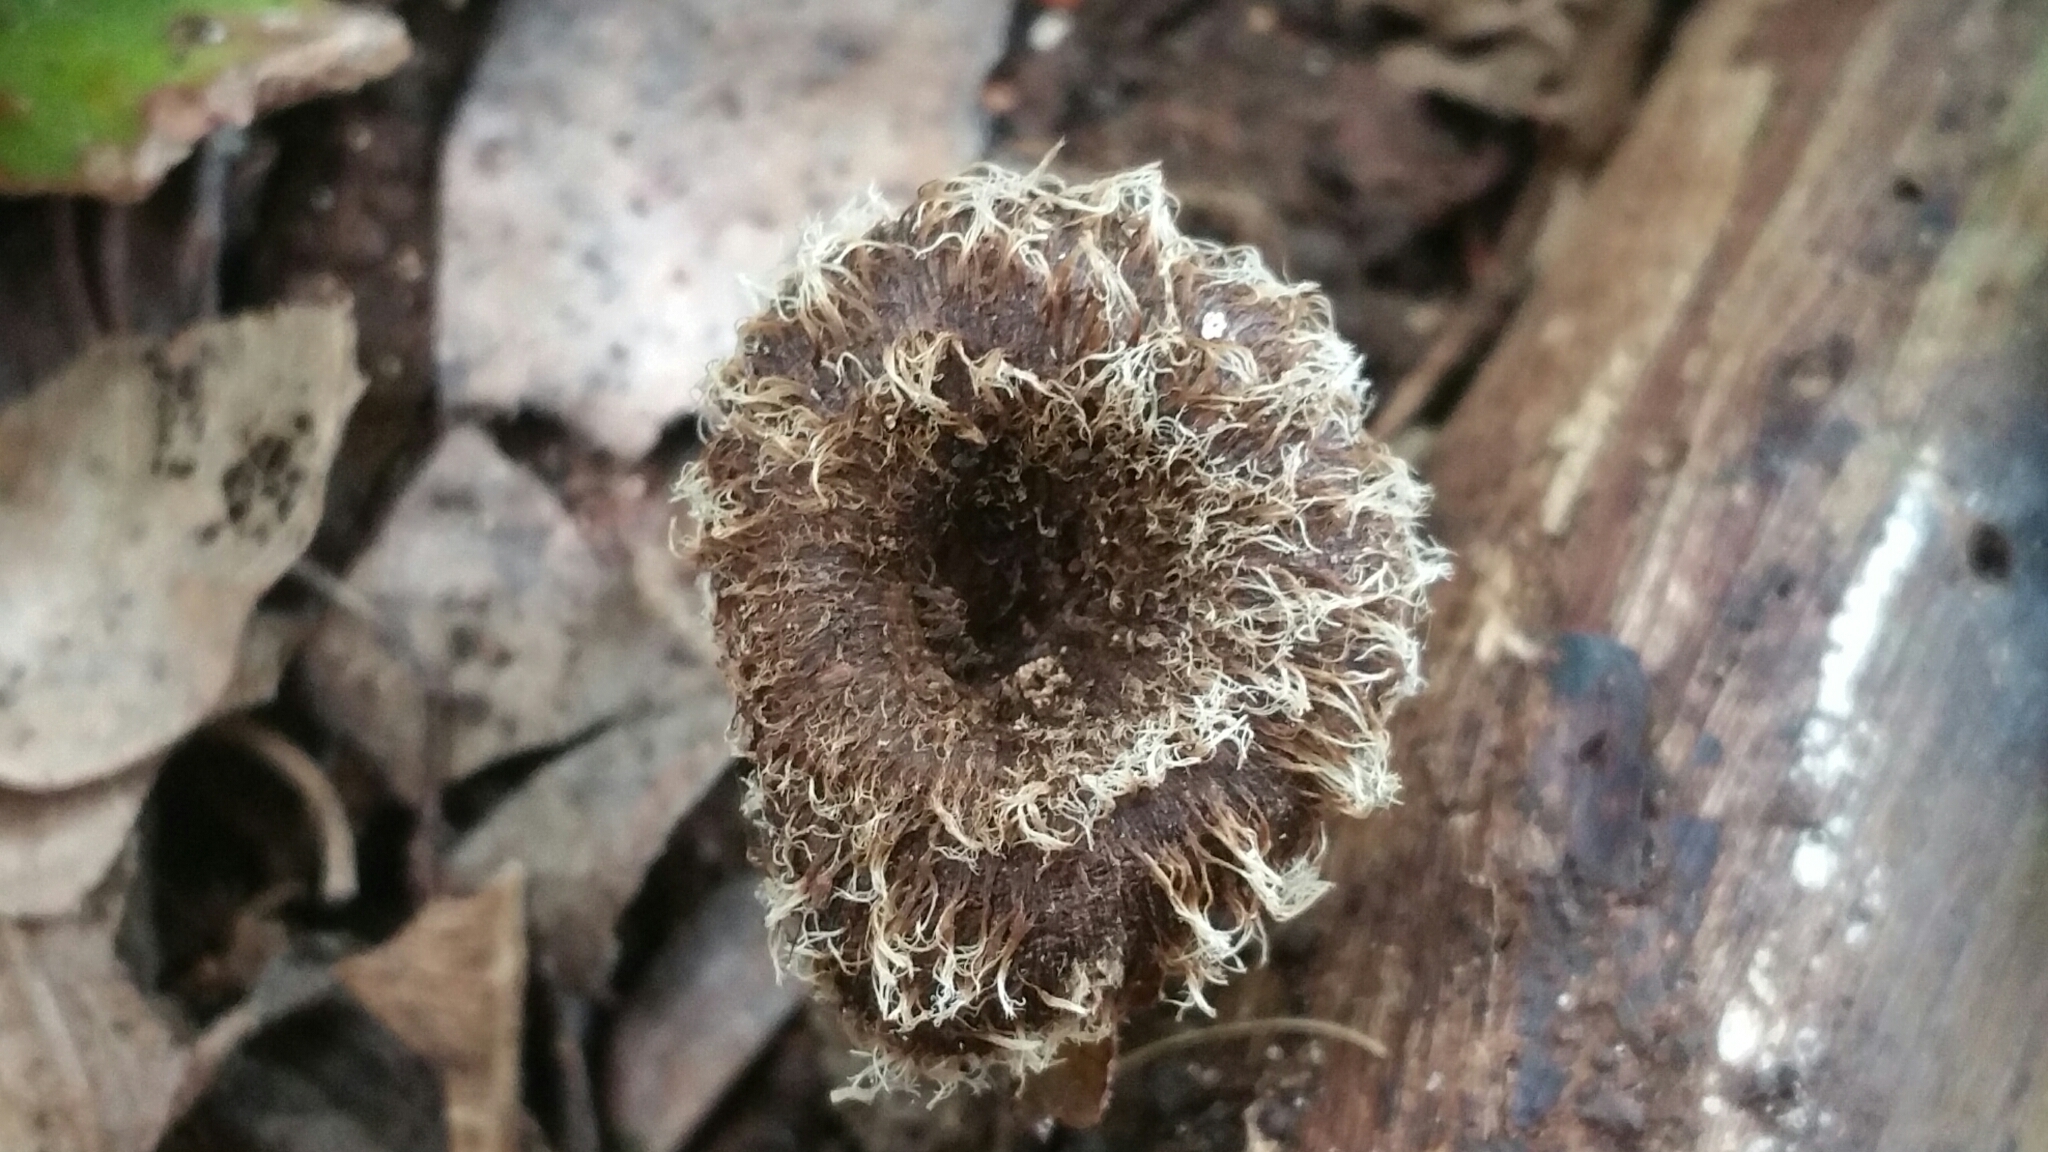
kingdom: Fungi
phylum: Basidiomycota
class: Agaricomycetes
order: Polyporales
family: Polyporaceae
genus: Lentinus
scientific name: Lentinus crinitus
